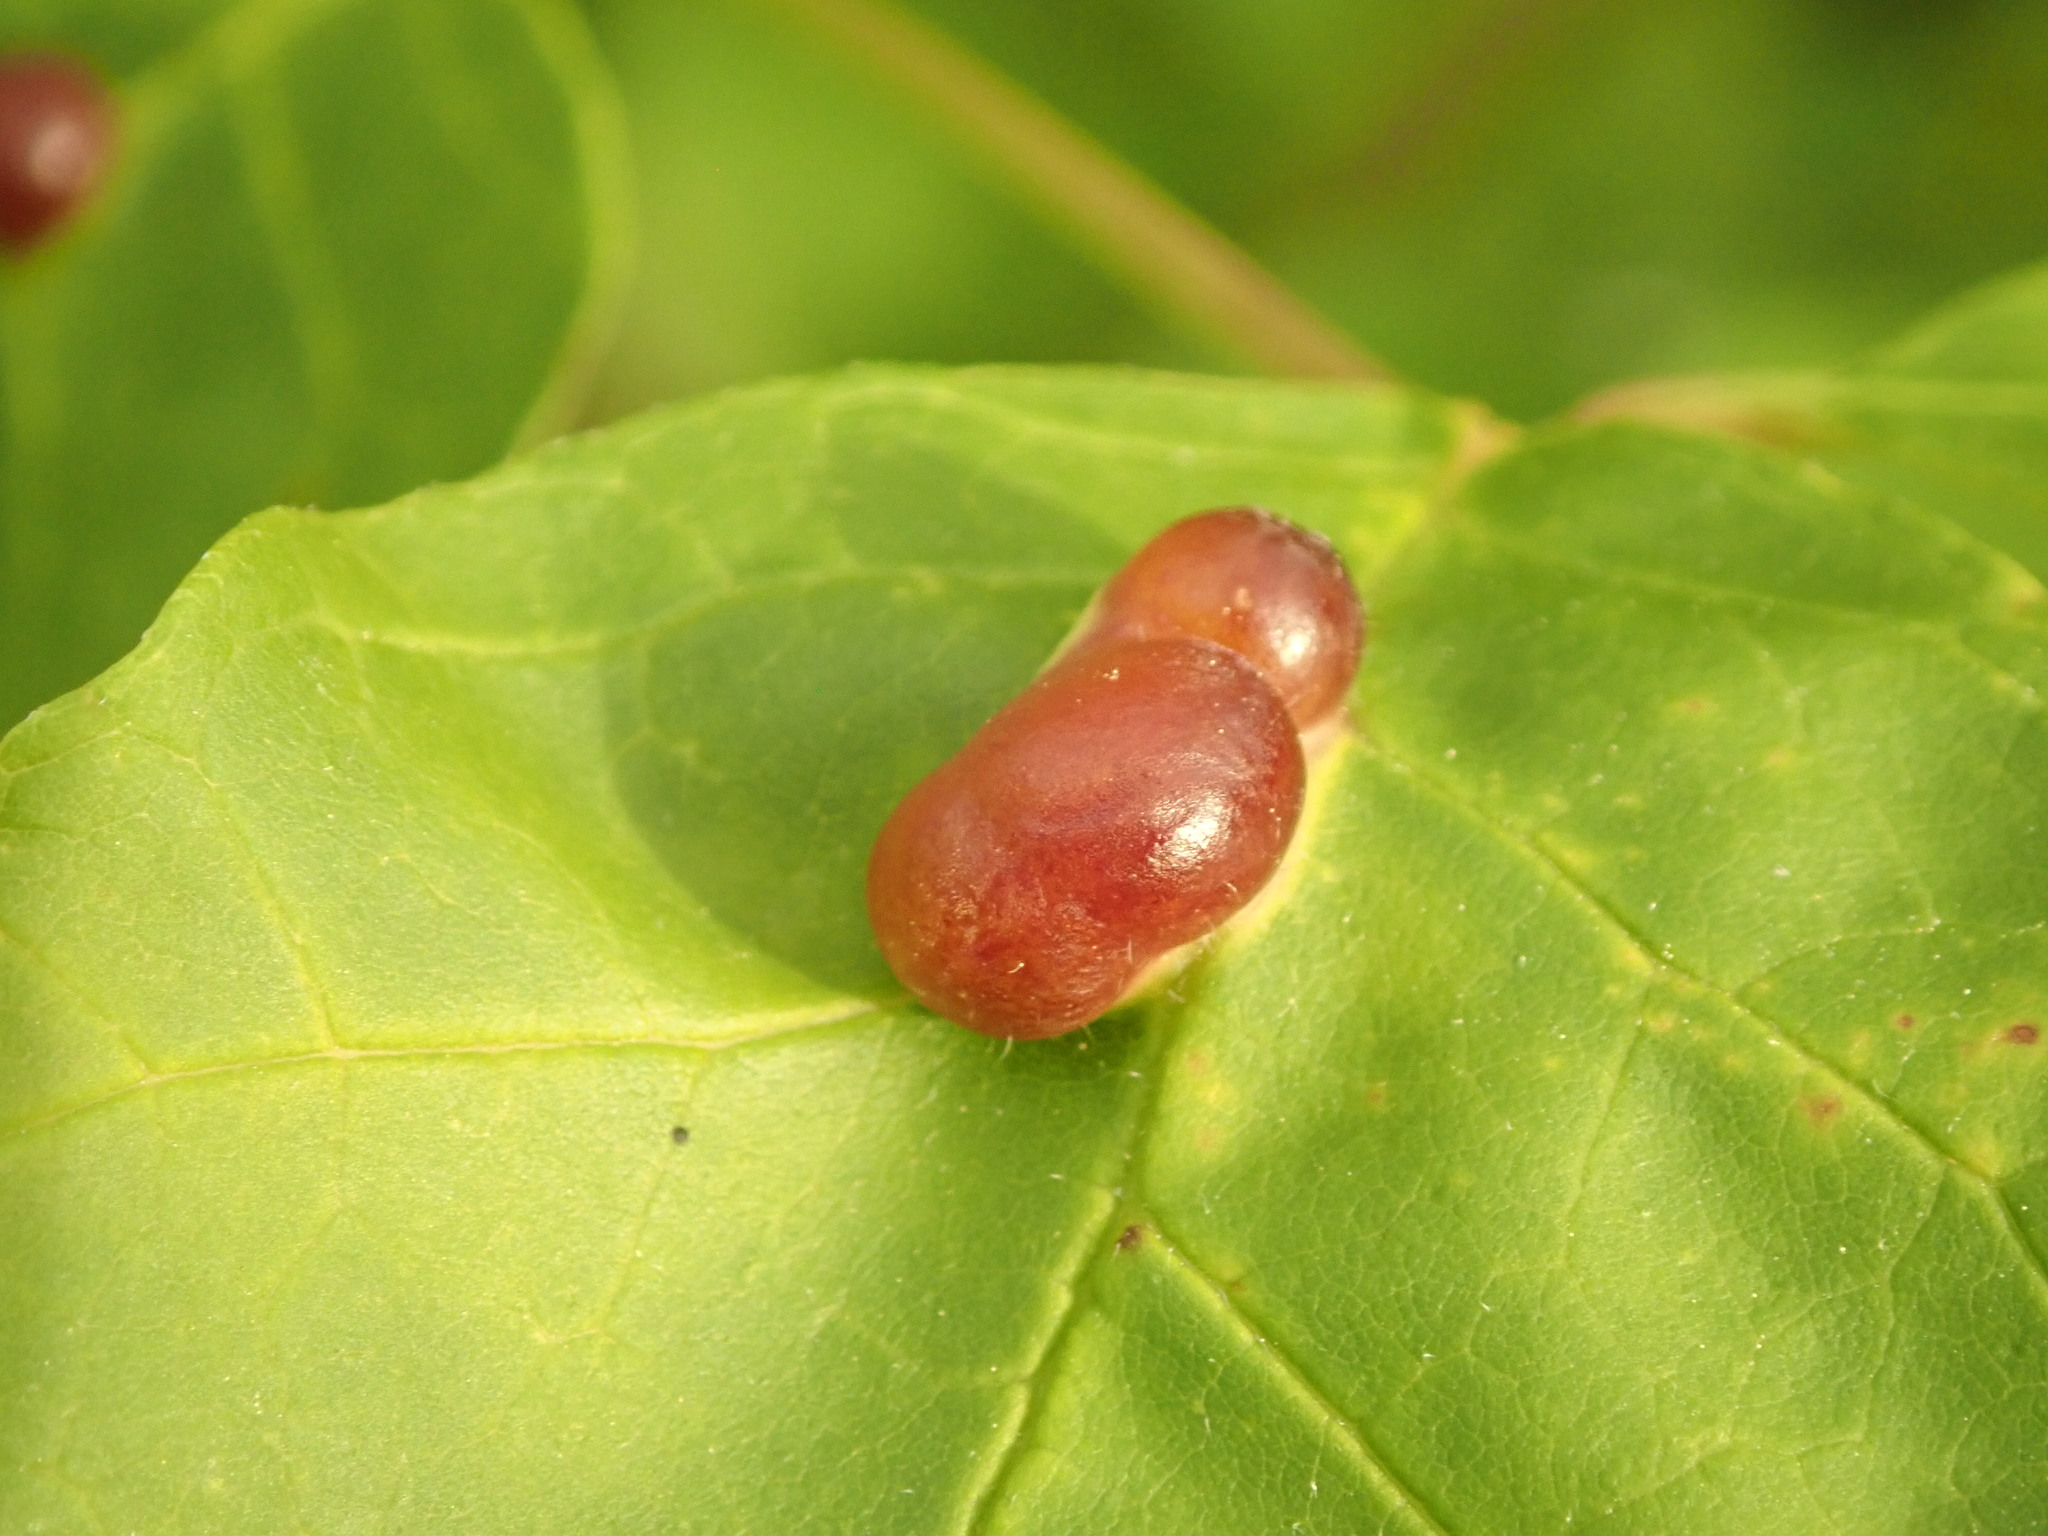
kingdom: Animalia
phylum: Arthropoda
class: Insecta
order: Diptera
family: Cecidomyiidae
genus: Dasineura
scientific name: Dasineura pellex
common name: Ash bullet gall midge
